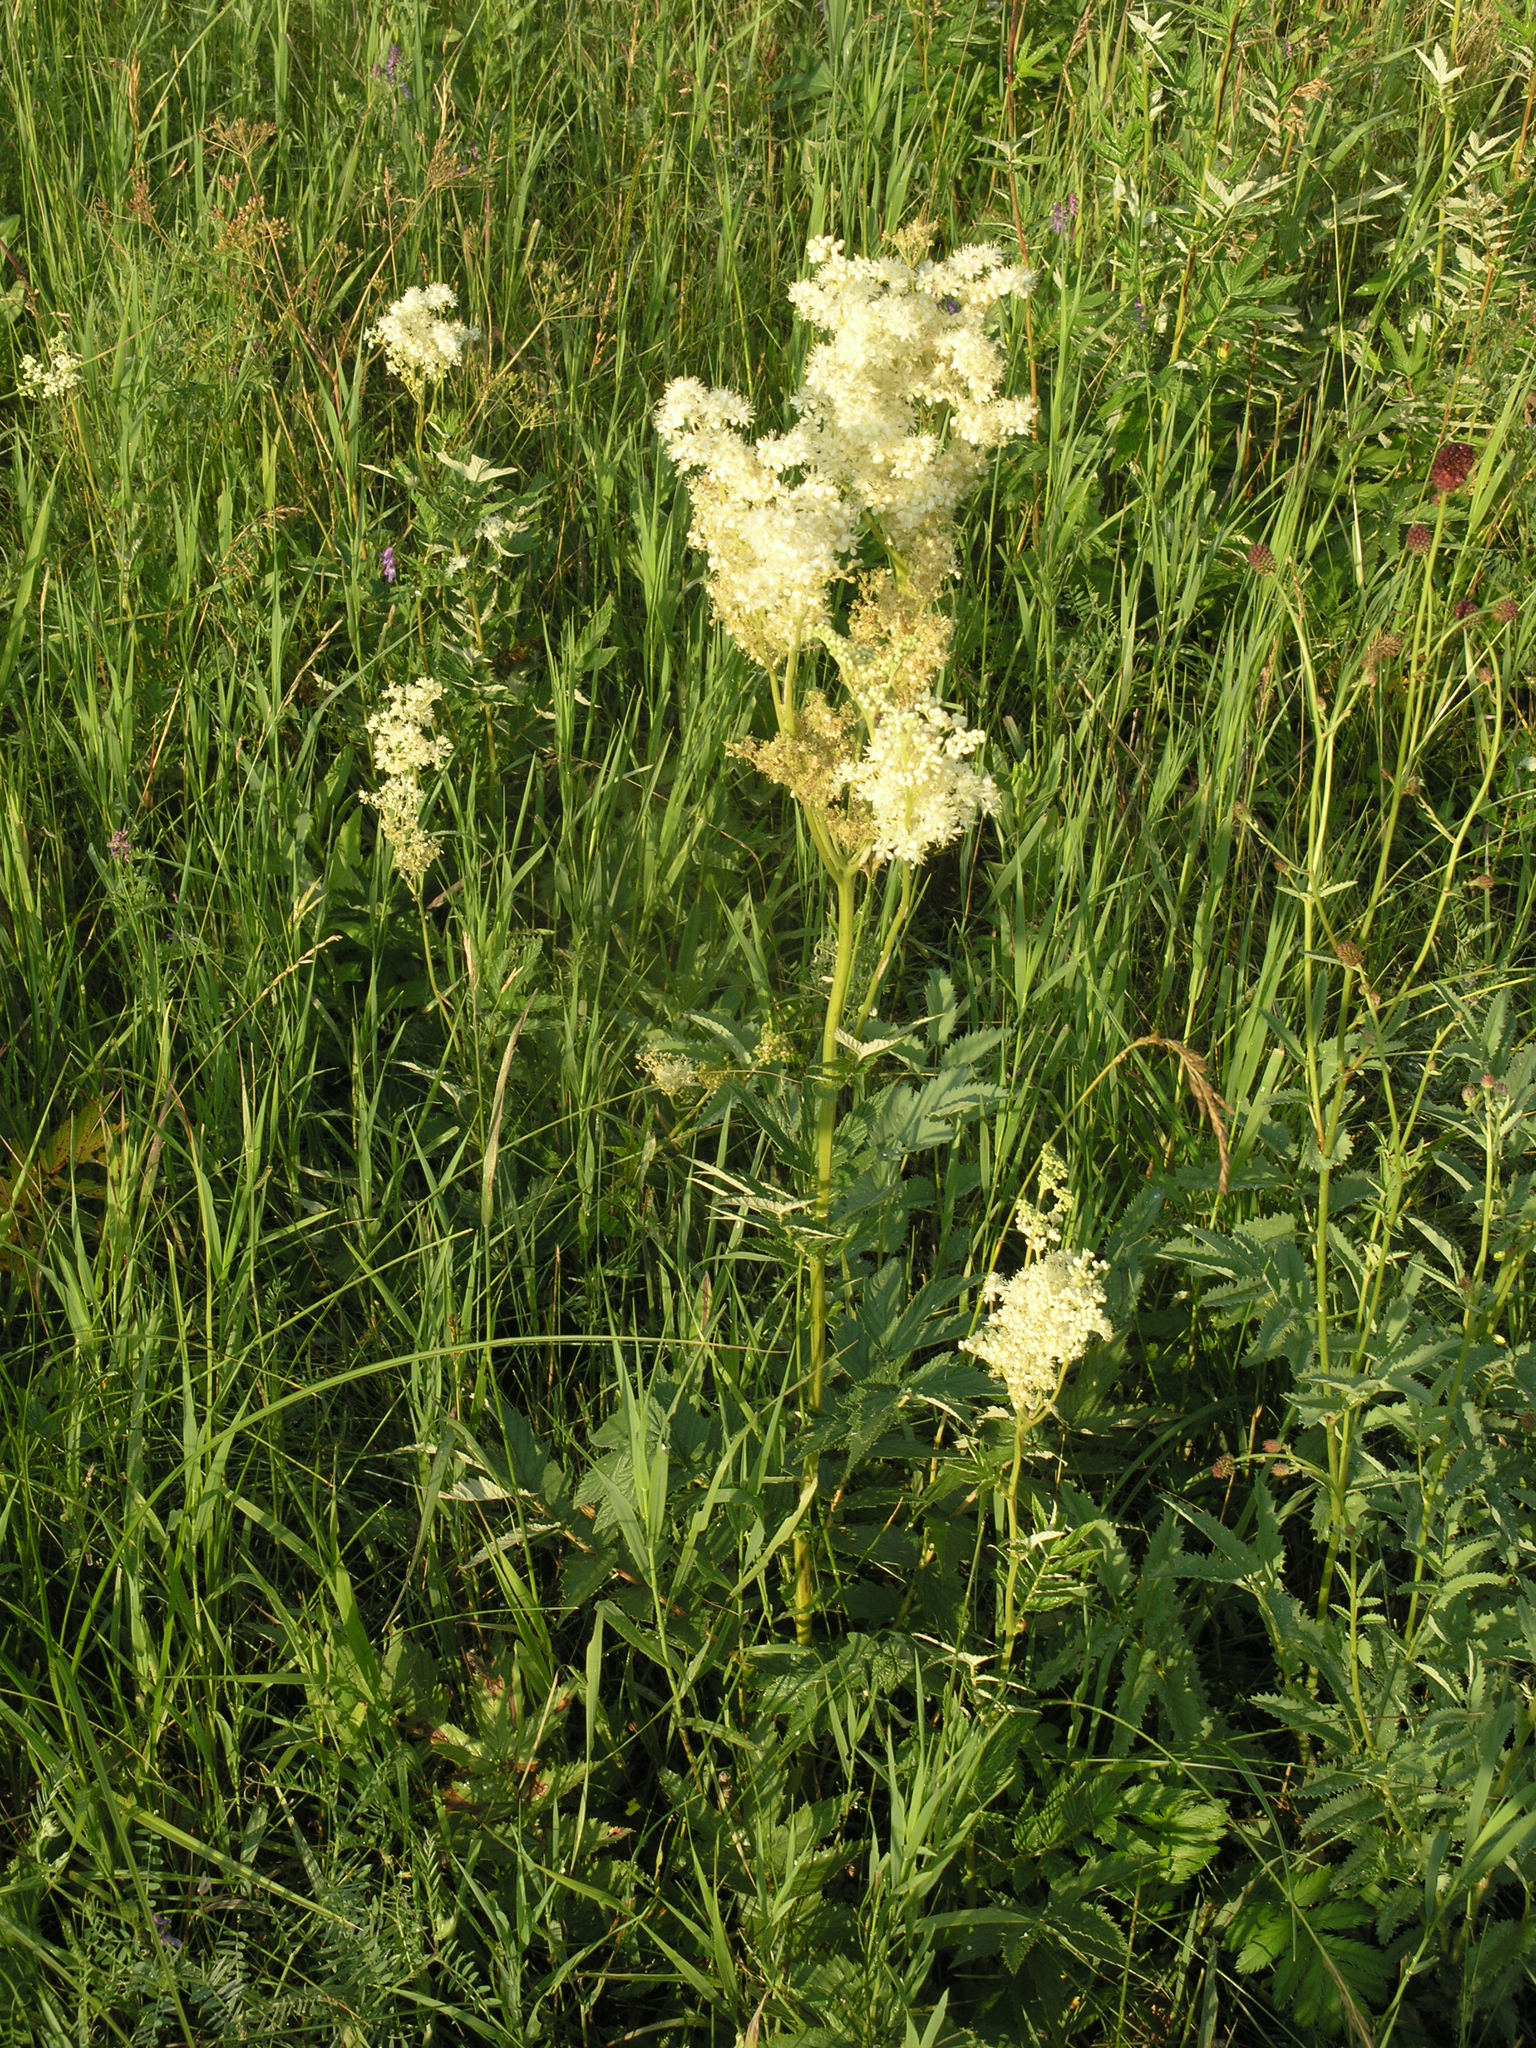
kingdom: Plantae
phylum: Tracheophyta
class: Magnoliopsida
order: Rosales
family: Rosaceae
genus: Filipendula
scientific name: Filipendula ulmaria
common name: Meadowsweet
